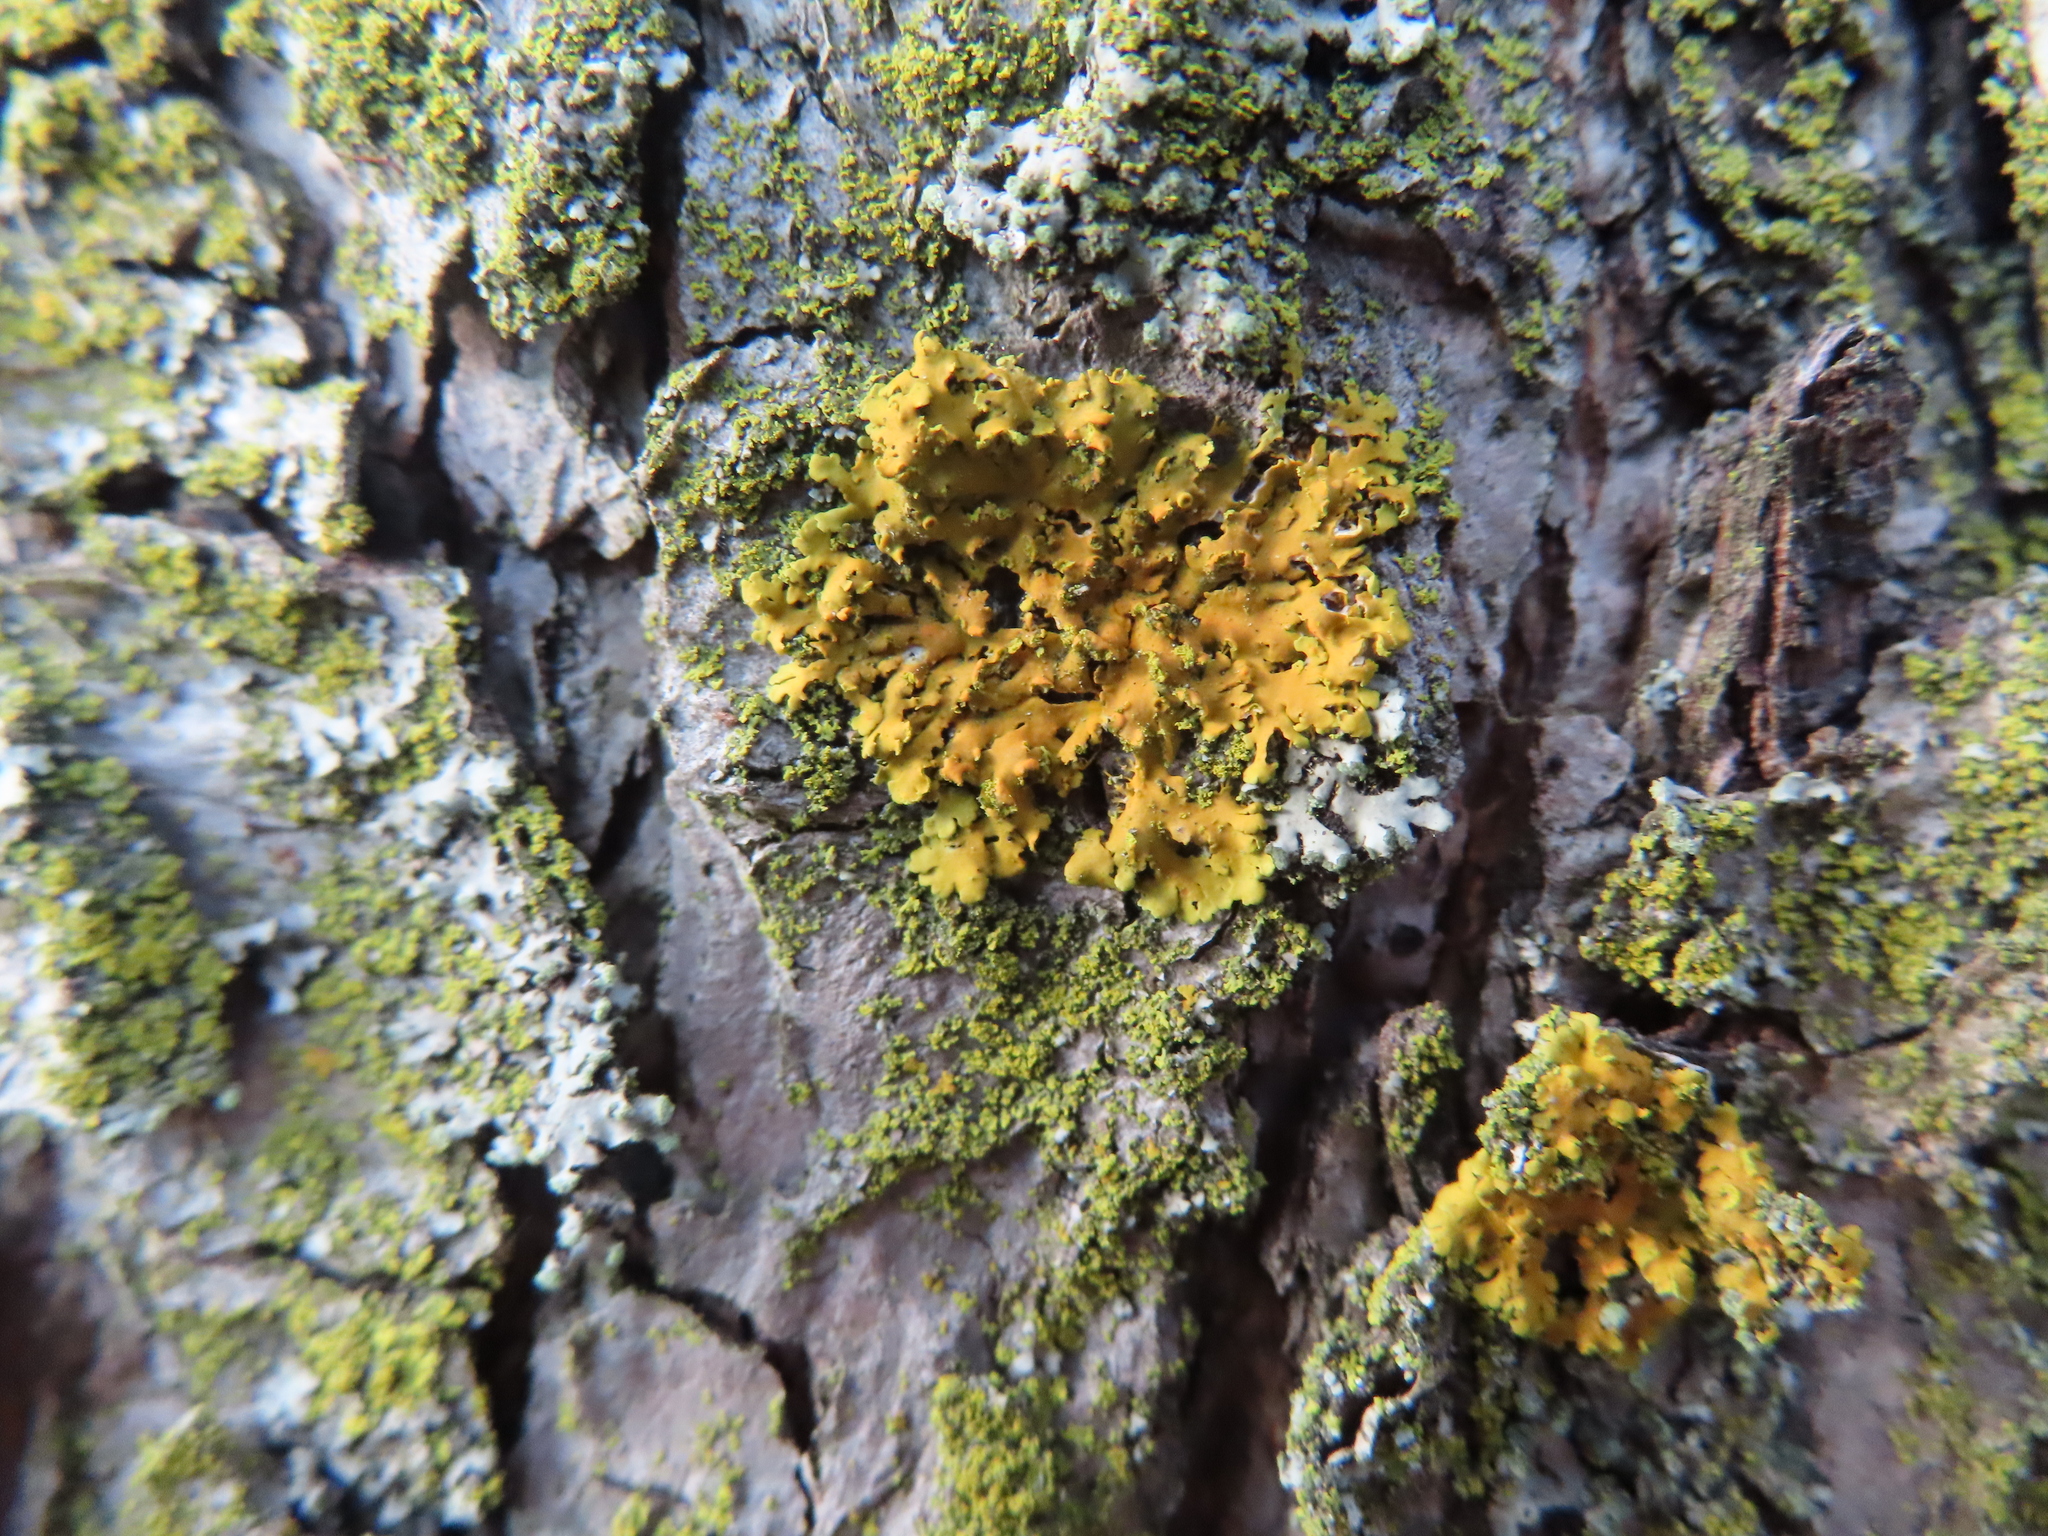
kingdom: Fungi
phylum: Ascomycota
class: Lecanoromycetes
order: Teloschistales
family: Teloschistaceae
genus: Xanthoria
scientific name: Xanthoria ulophyllodes
